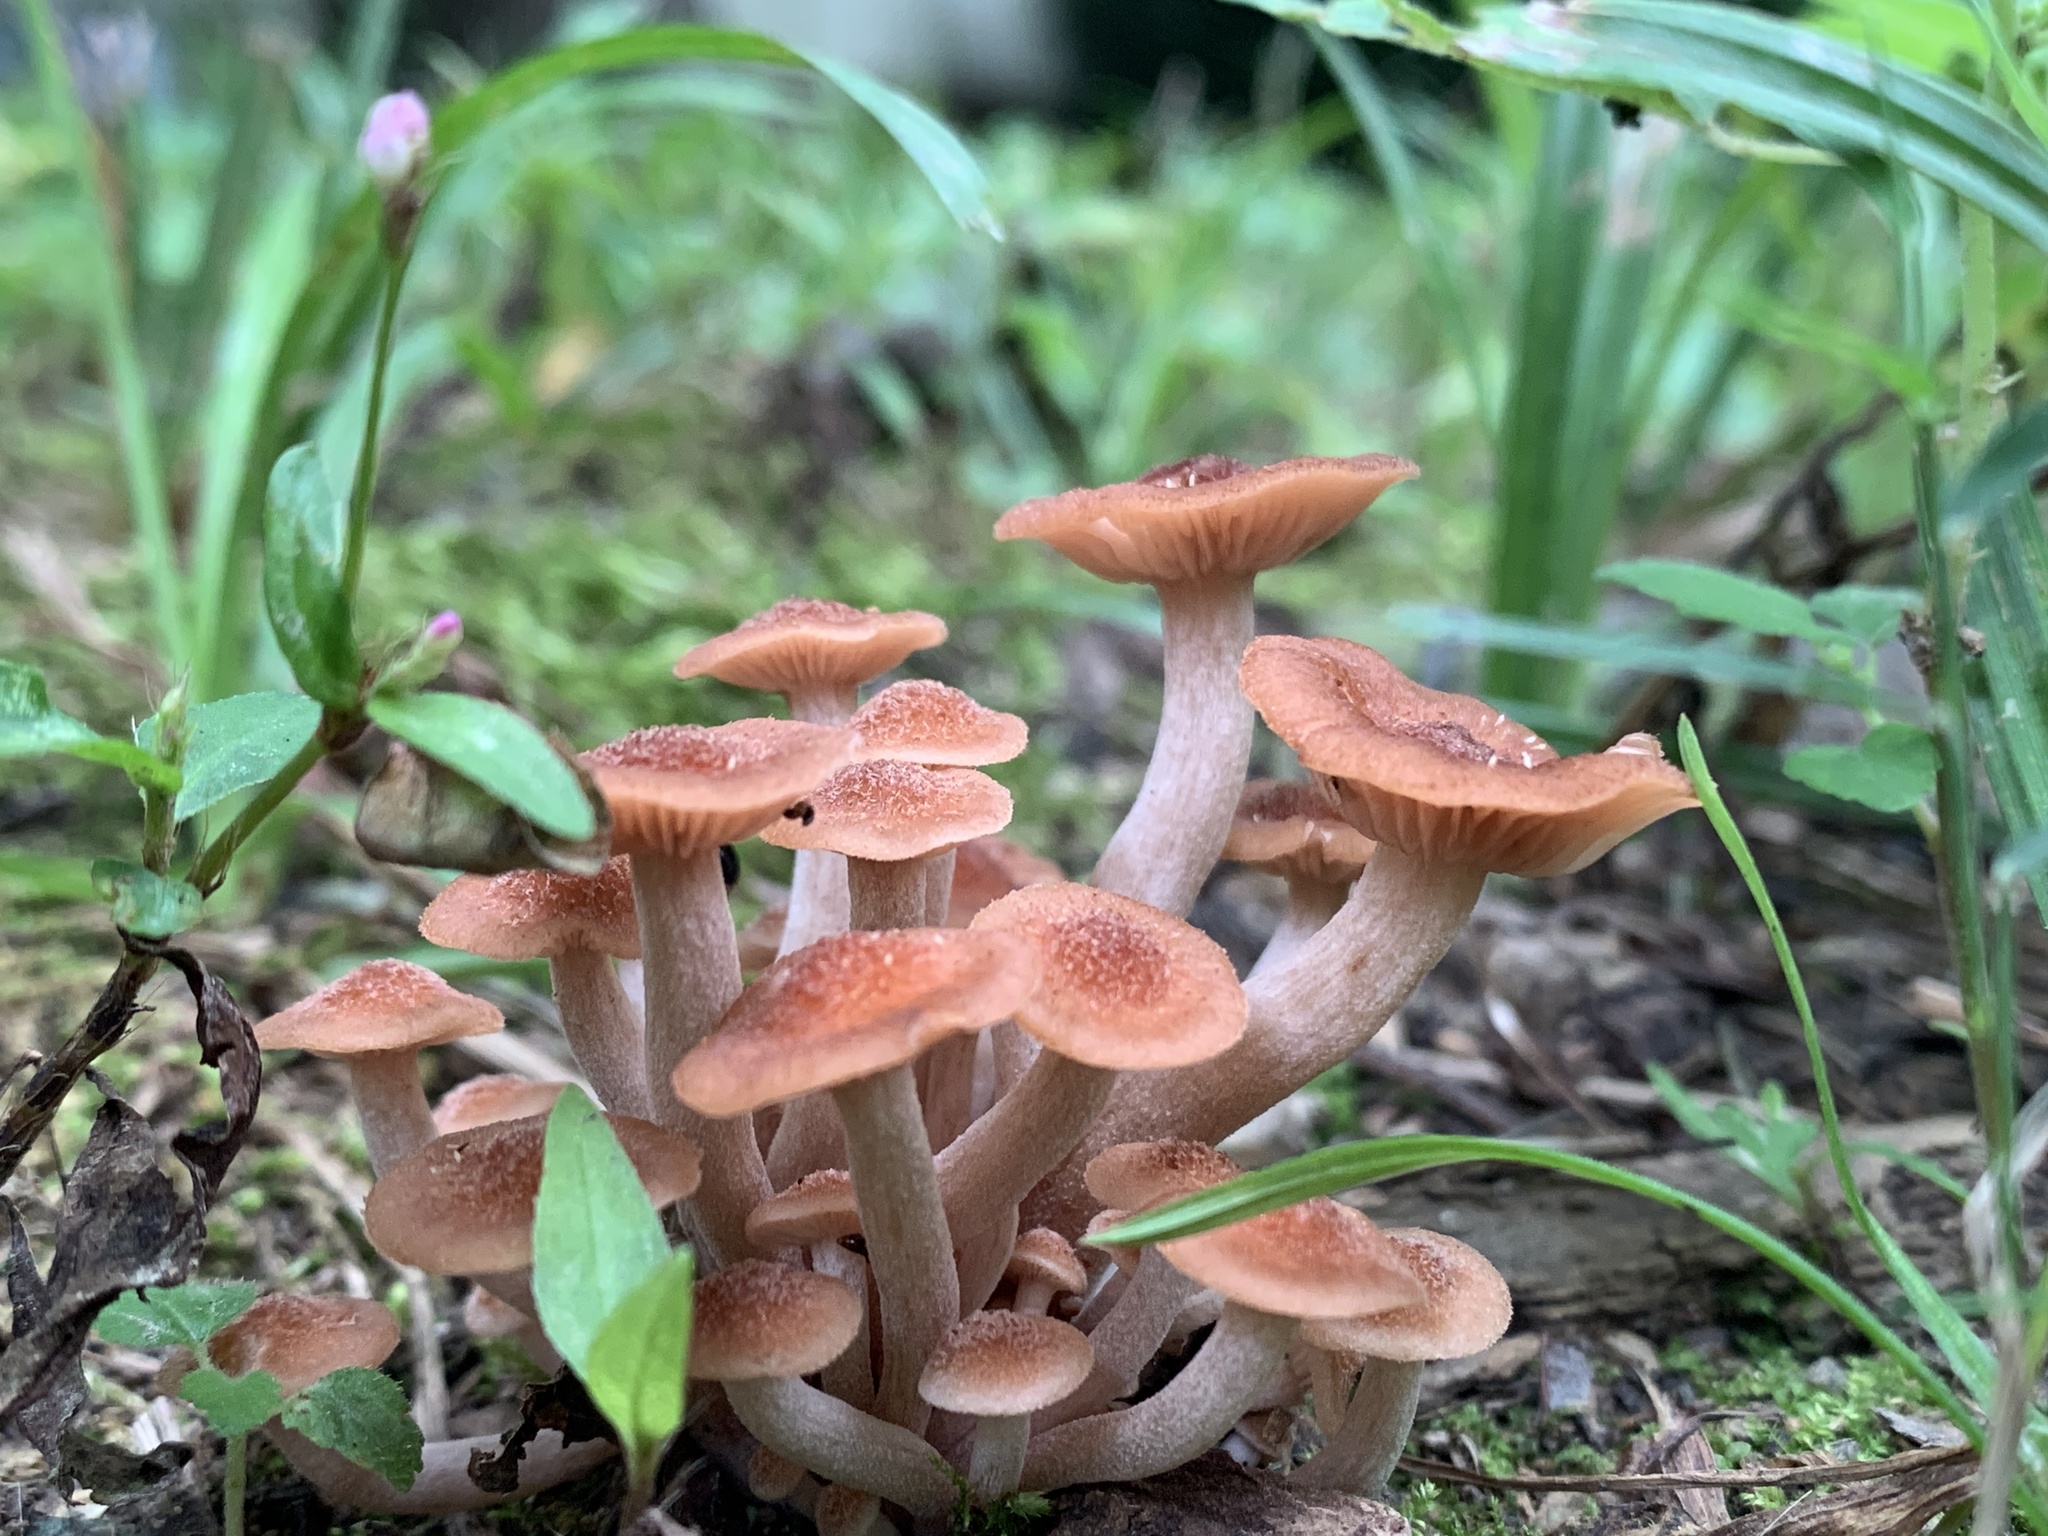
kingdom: Fungi
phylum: Basidiomycota
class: Agaricomycetes
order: Agaricales
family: Physalacriaceae
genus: Desarmillaria
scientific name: Desarmillaria caespitosa
